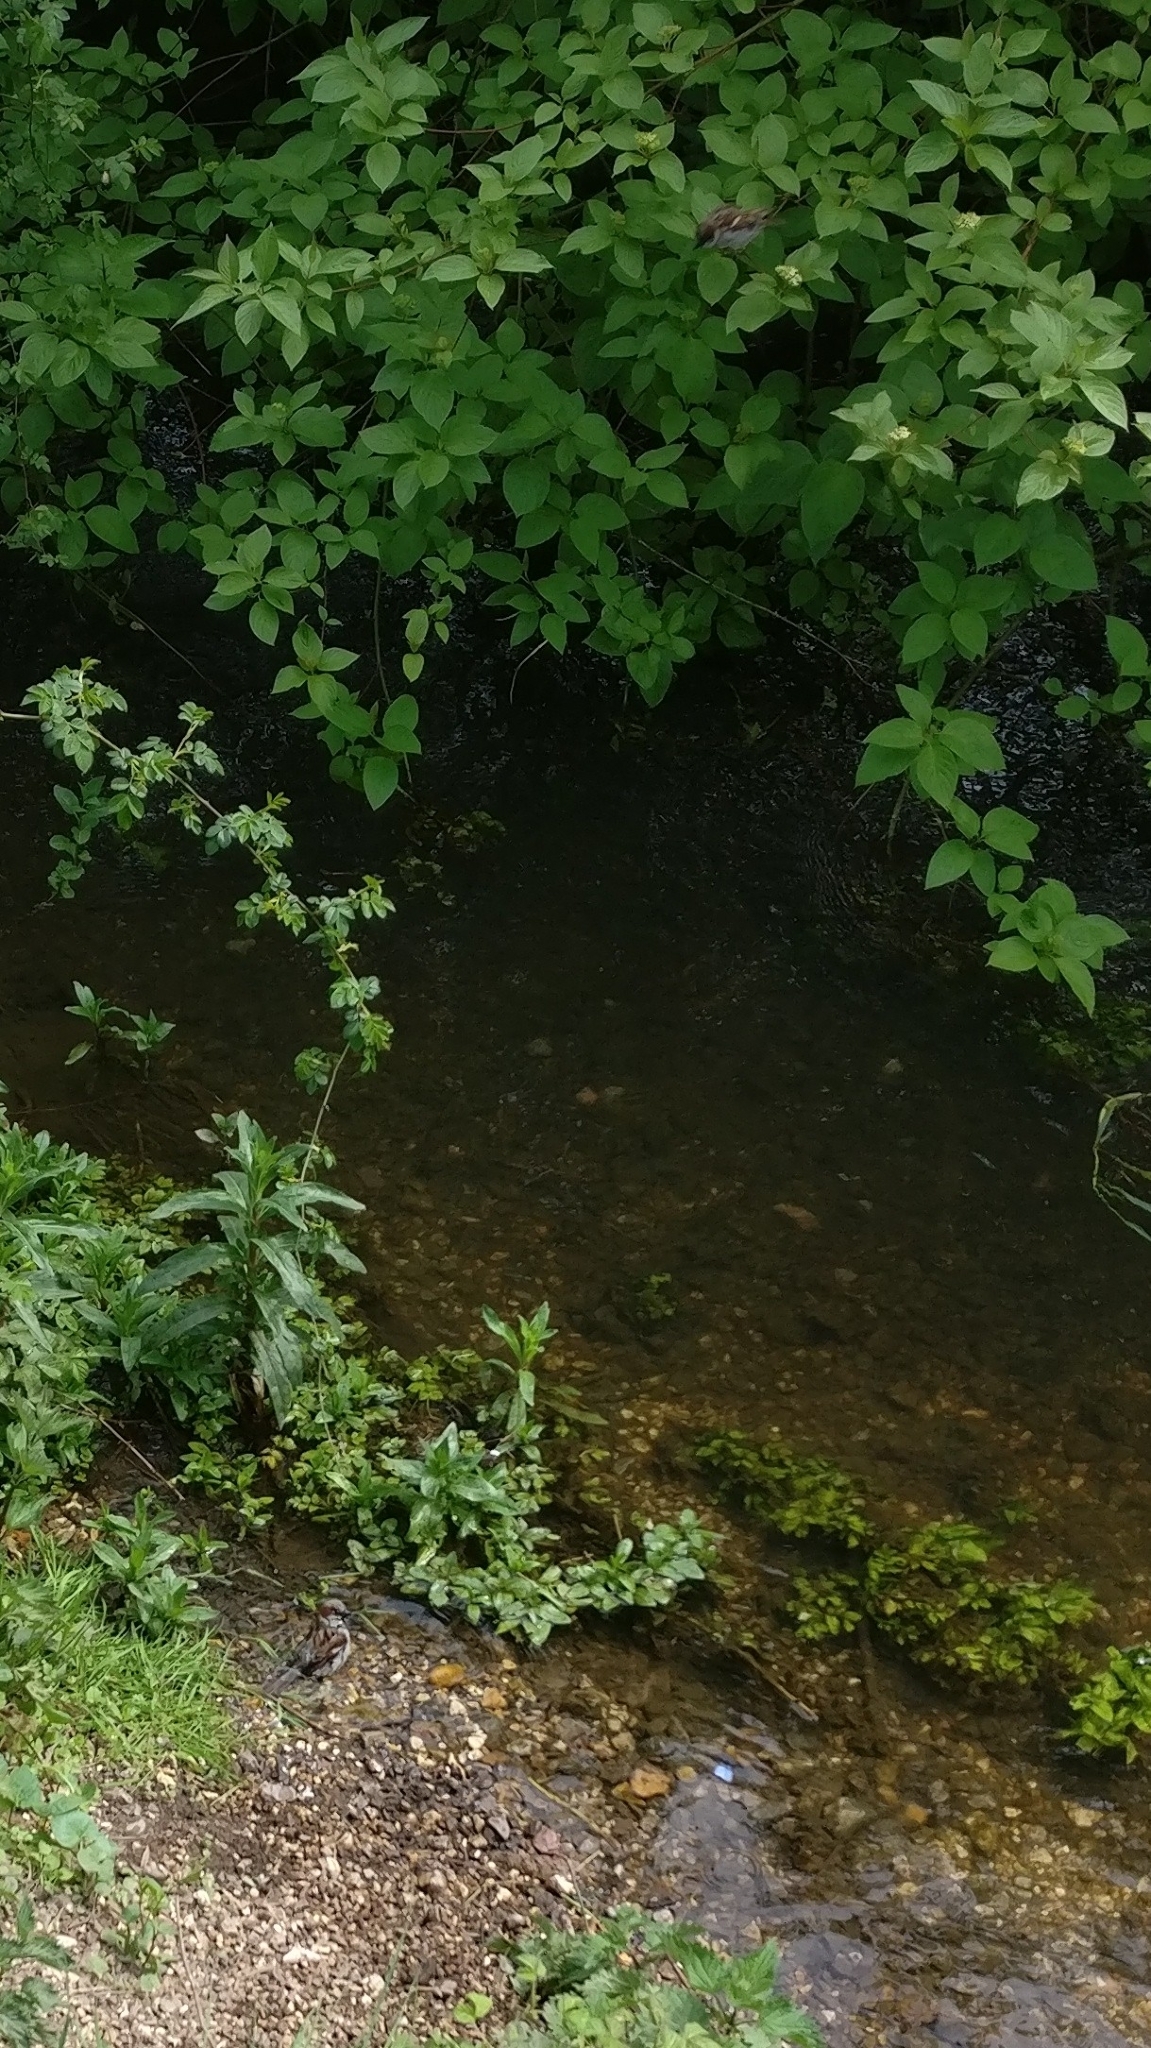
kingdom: Animalia
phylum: Chordata
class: Aves
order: Passeriformes
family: Passeridae
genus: Passer
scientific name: Passer domesticus
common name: House sparrow
